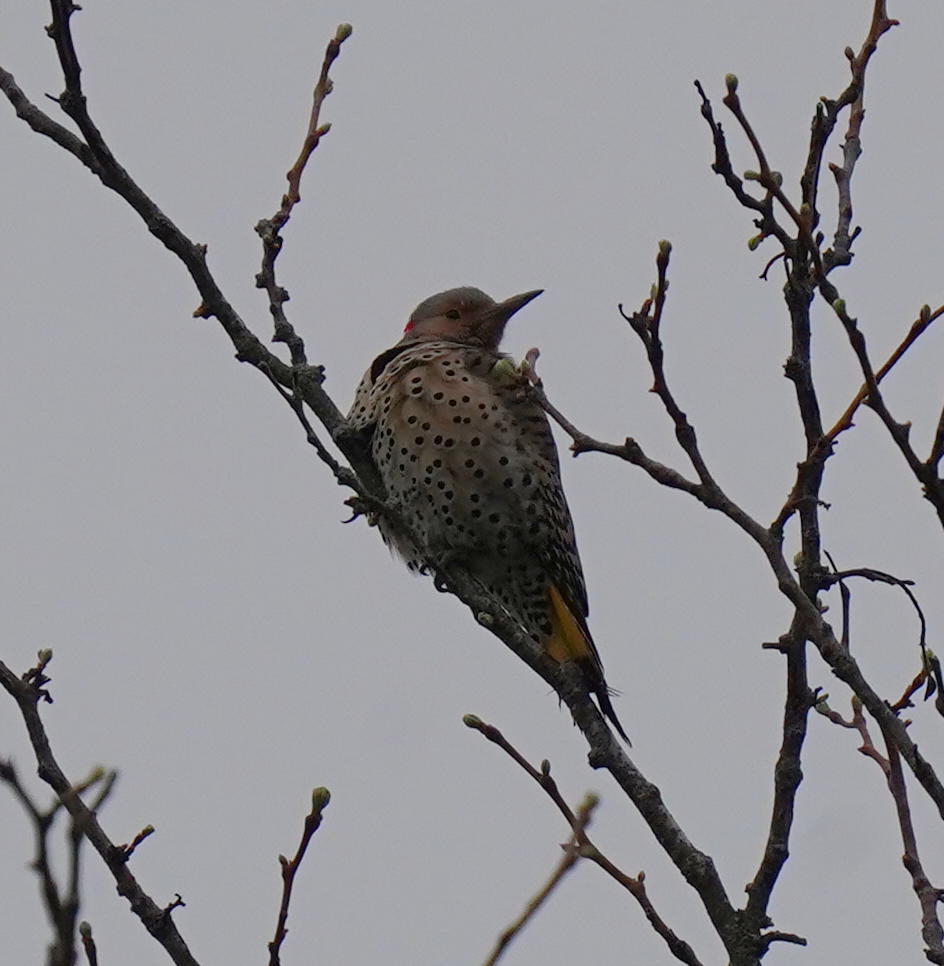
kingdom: Animalia
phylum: Chordata
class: Aves
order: Piciformes
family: Picidae
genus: Colaptes
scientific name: Colaptes auratus
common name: Northern flicker
